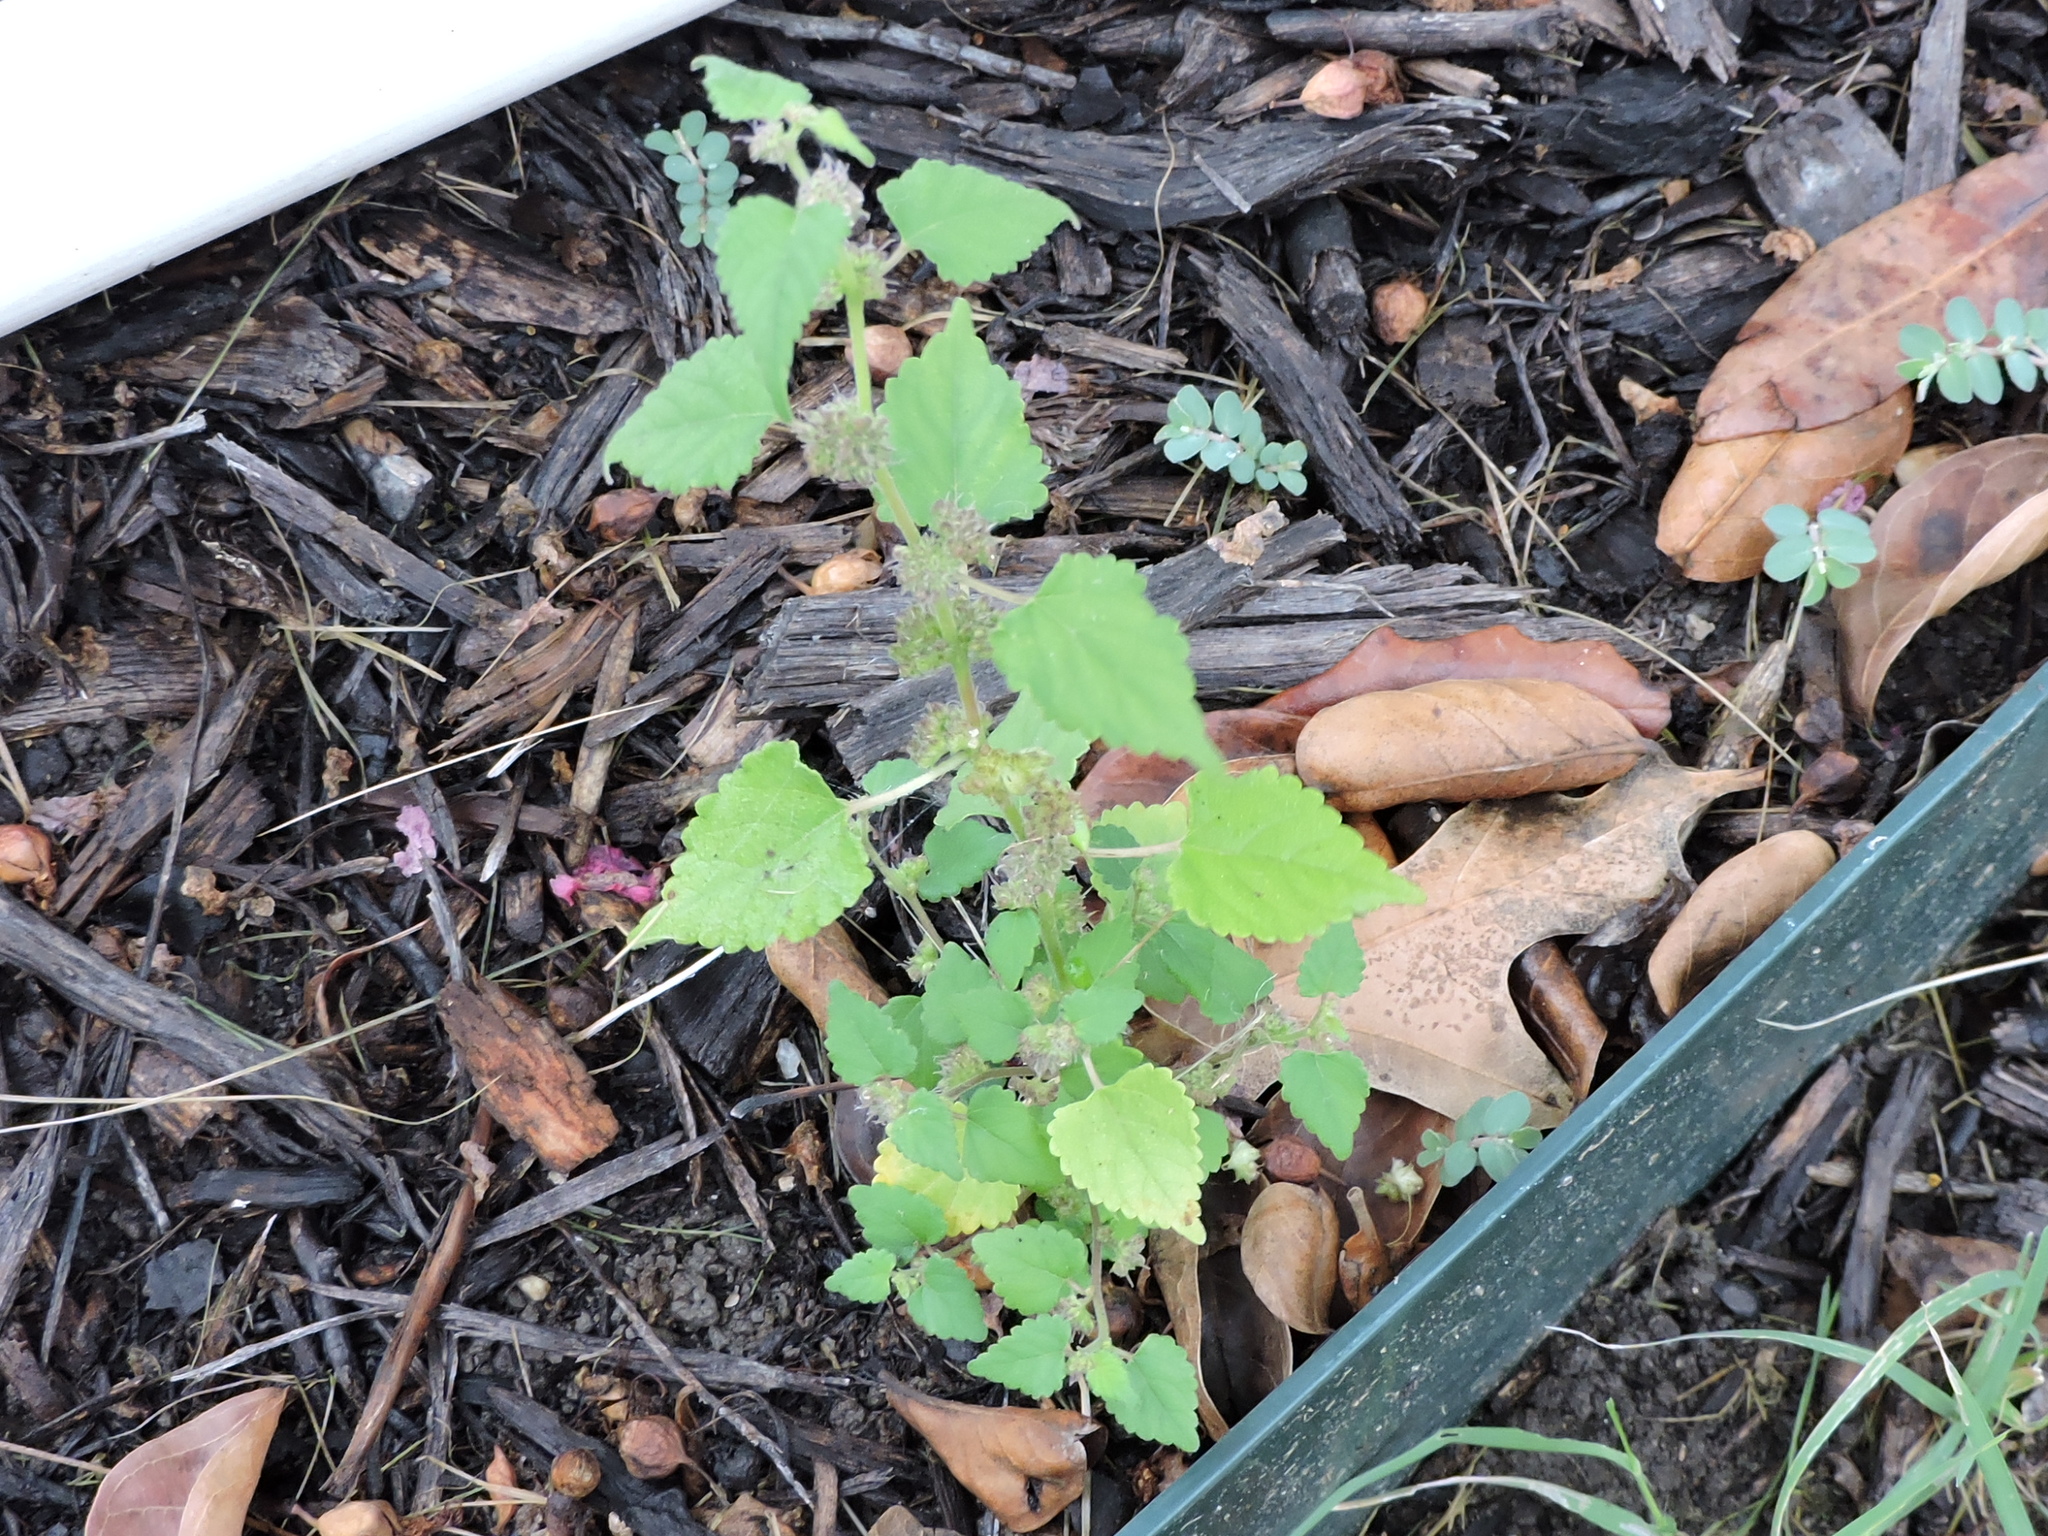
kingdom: Plantae
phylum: Tracheophyta
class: Magnoliopsida
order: Rosales
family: Moraceae
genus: Fatoua
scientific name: Fatoua villosa
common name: Hairy crabweed
